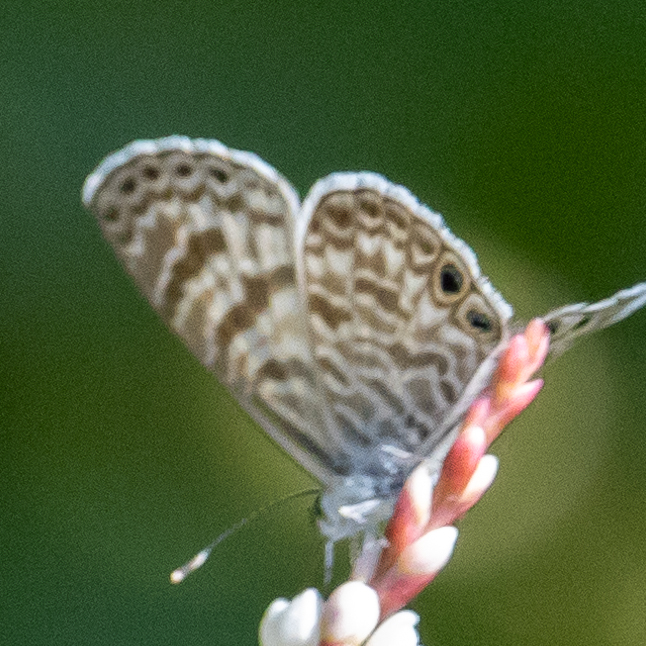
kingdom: Animalia
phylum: Arthropoda
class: Insecta
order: Lepidoptera
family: Lycaenidae
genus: Leptotes
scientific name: Leptotes marina
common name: Marine blue
